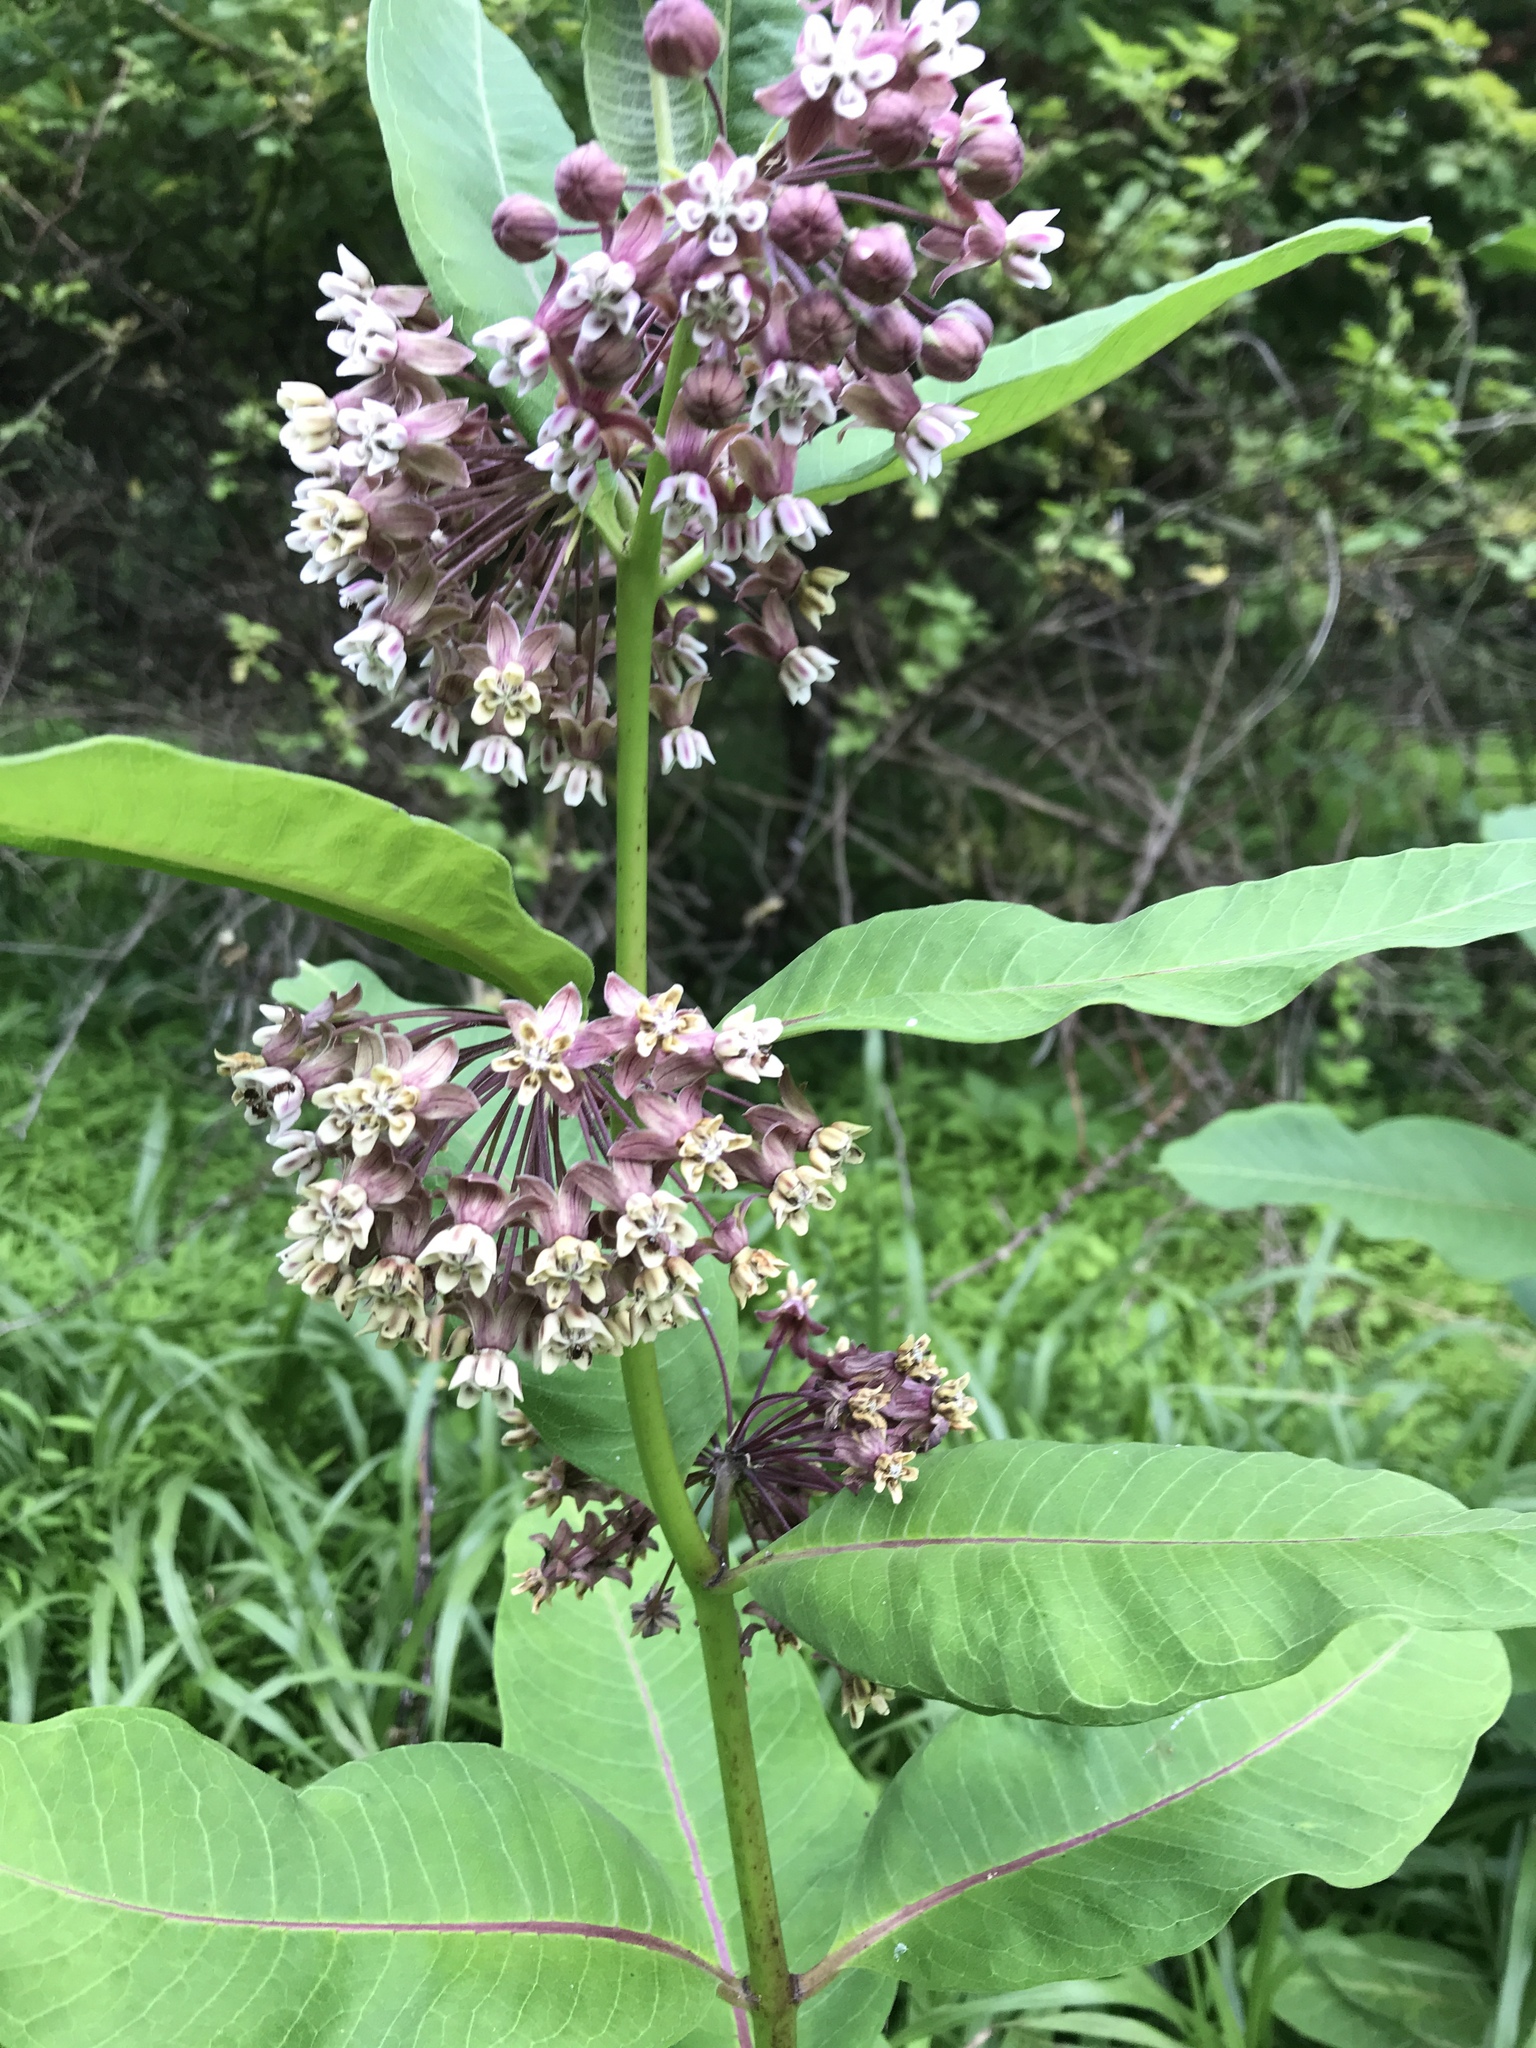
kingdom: Plantae
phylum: Tracheophyta
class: Magnoliopsida
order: Gentianales
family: Apocynaceae
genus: Asclepias
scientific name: Asclepias syriaca
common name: Common milkweed
